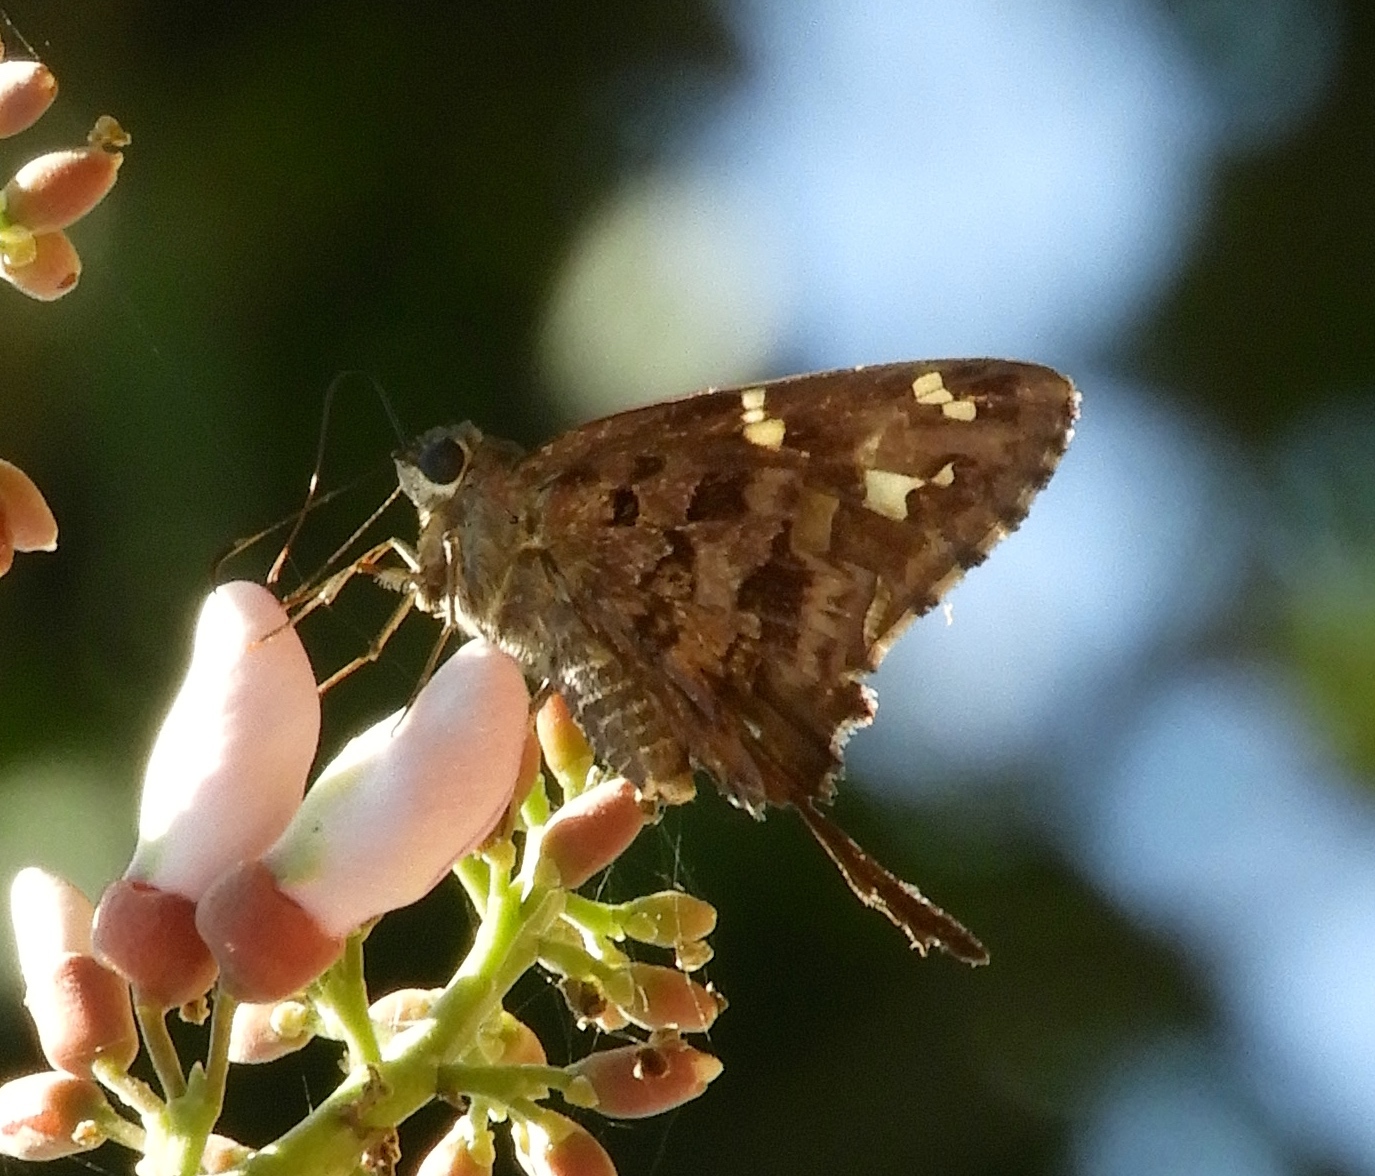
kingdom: Animalia
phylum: Arthropoda
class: Insecta
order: Lepidoptera
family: Hesperiidae
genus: Thorybes
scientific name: Thorybes
